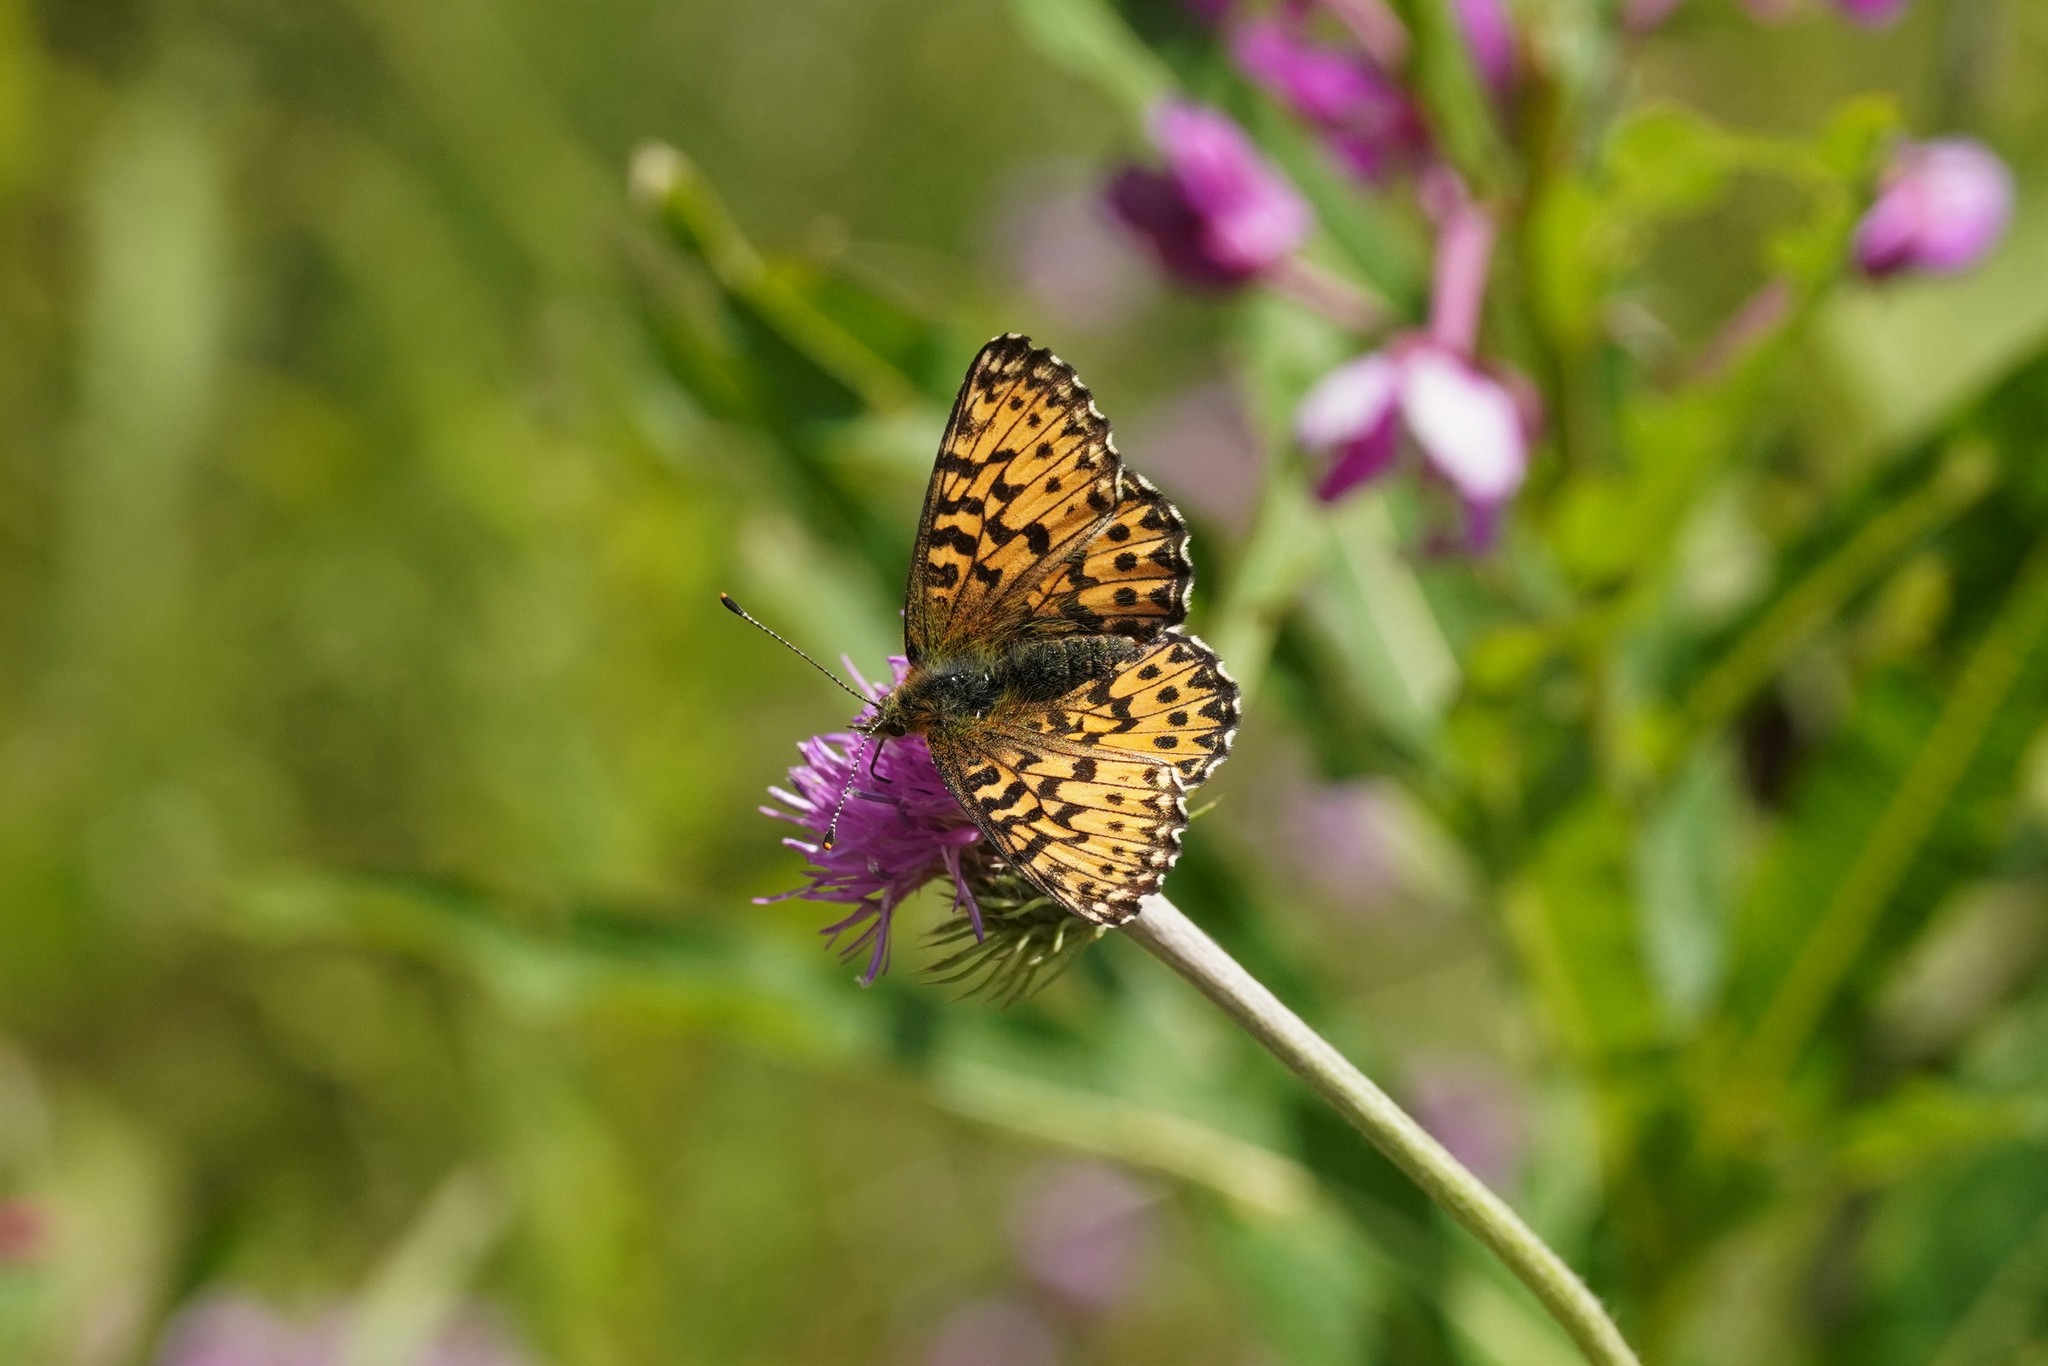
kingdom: Animalia
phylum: Arthropoda
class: Insecta
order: Lepidoptera
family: Nymphalidae
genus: Boloria
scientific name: Boloria titania
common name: Titania's fritillary
